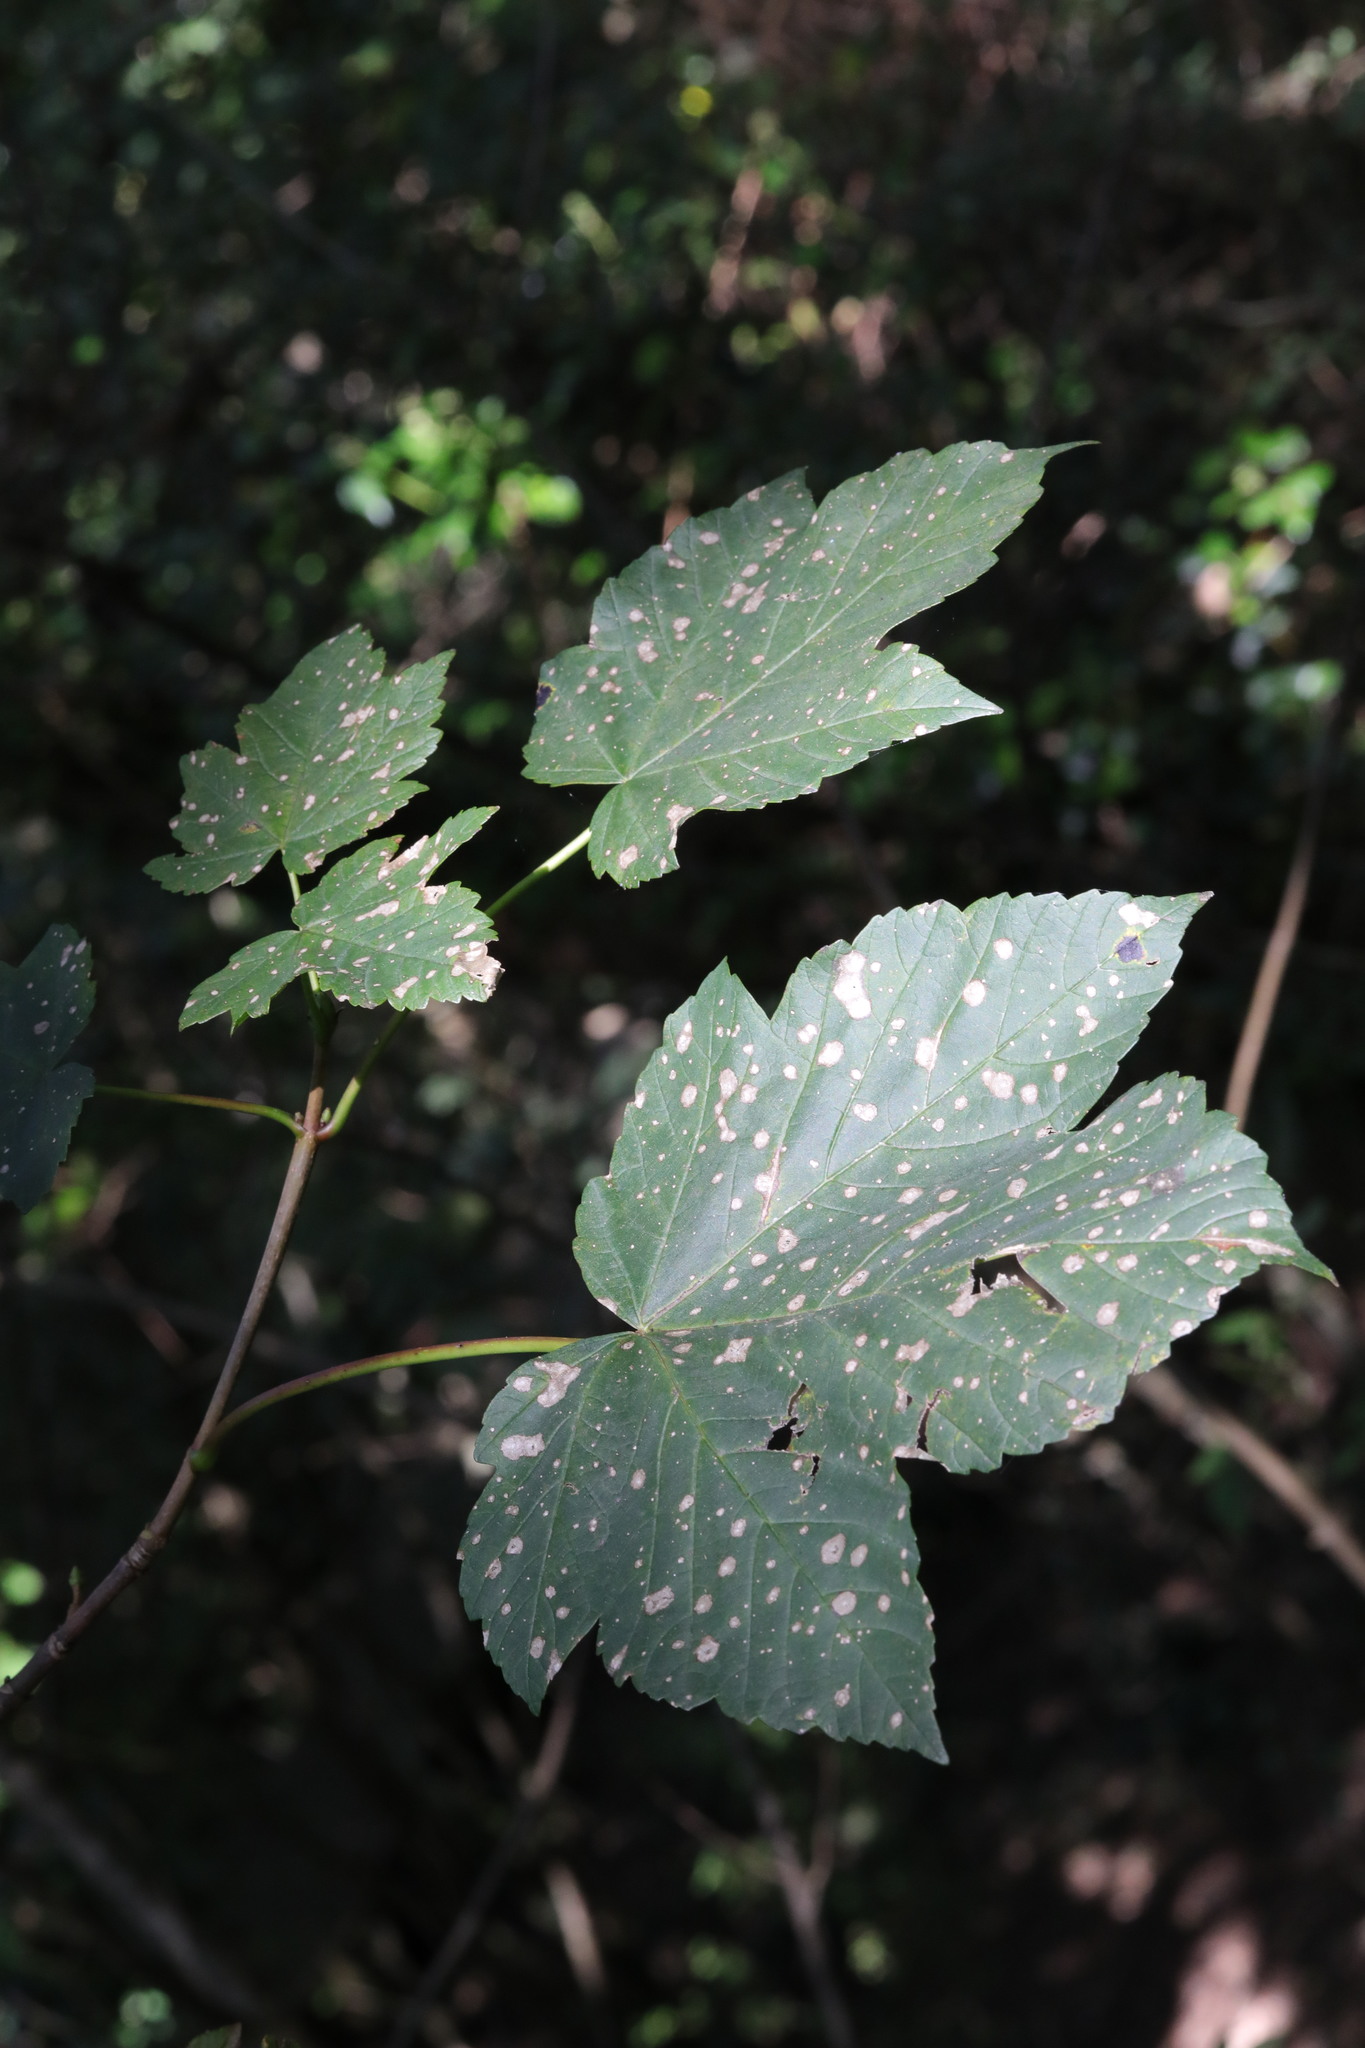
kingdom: Plantae
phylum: Tracheophyta
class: Magnoliopsida
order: Sapindales
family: Sapindaceae
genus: Acer
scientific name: Acer pseudoplatanus
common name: Sycamore
